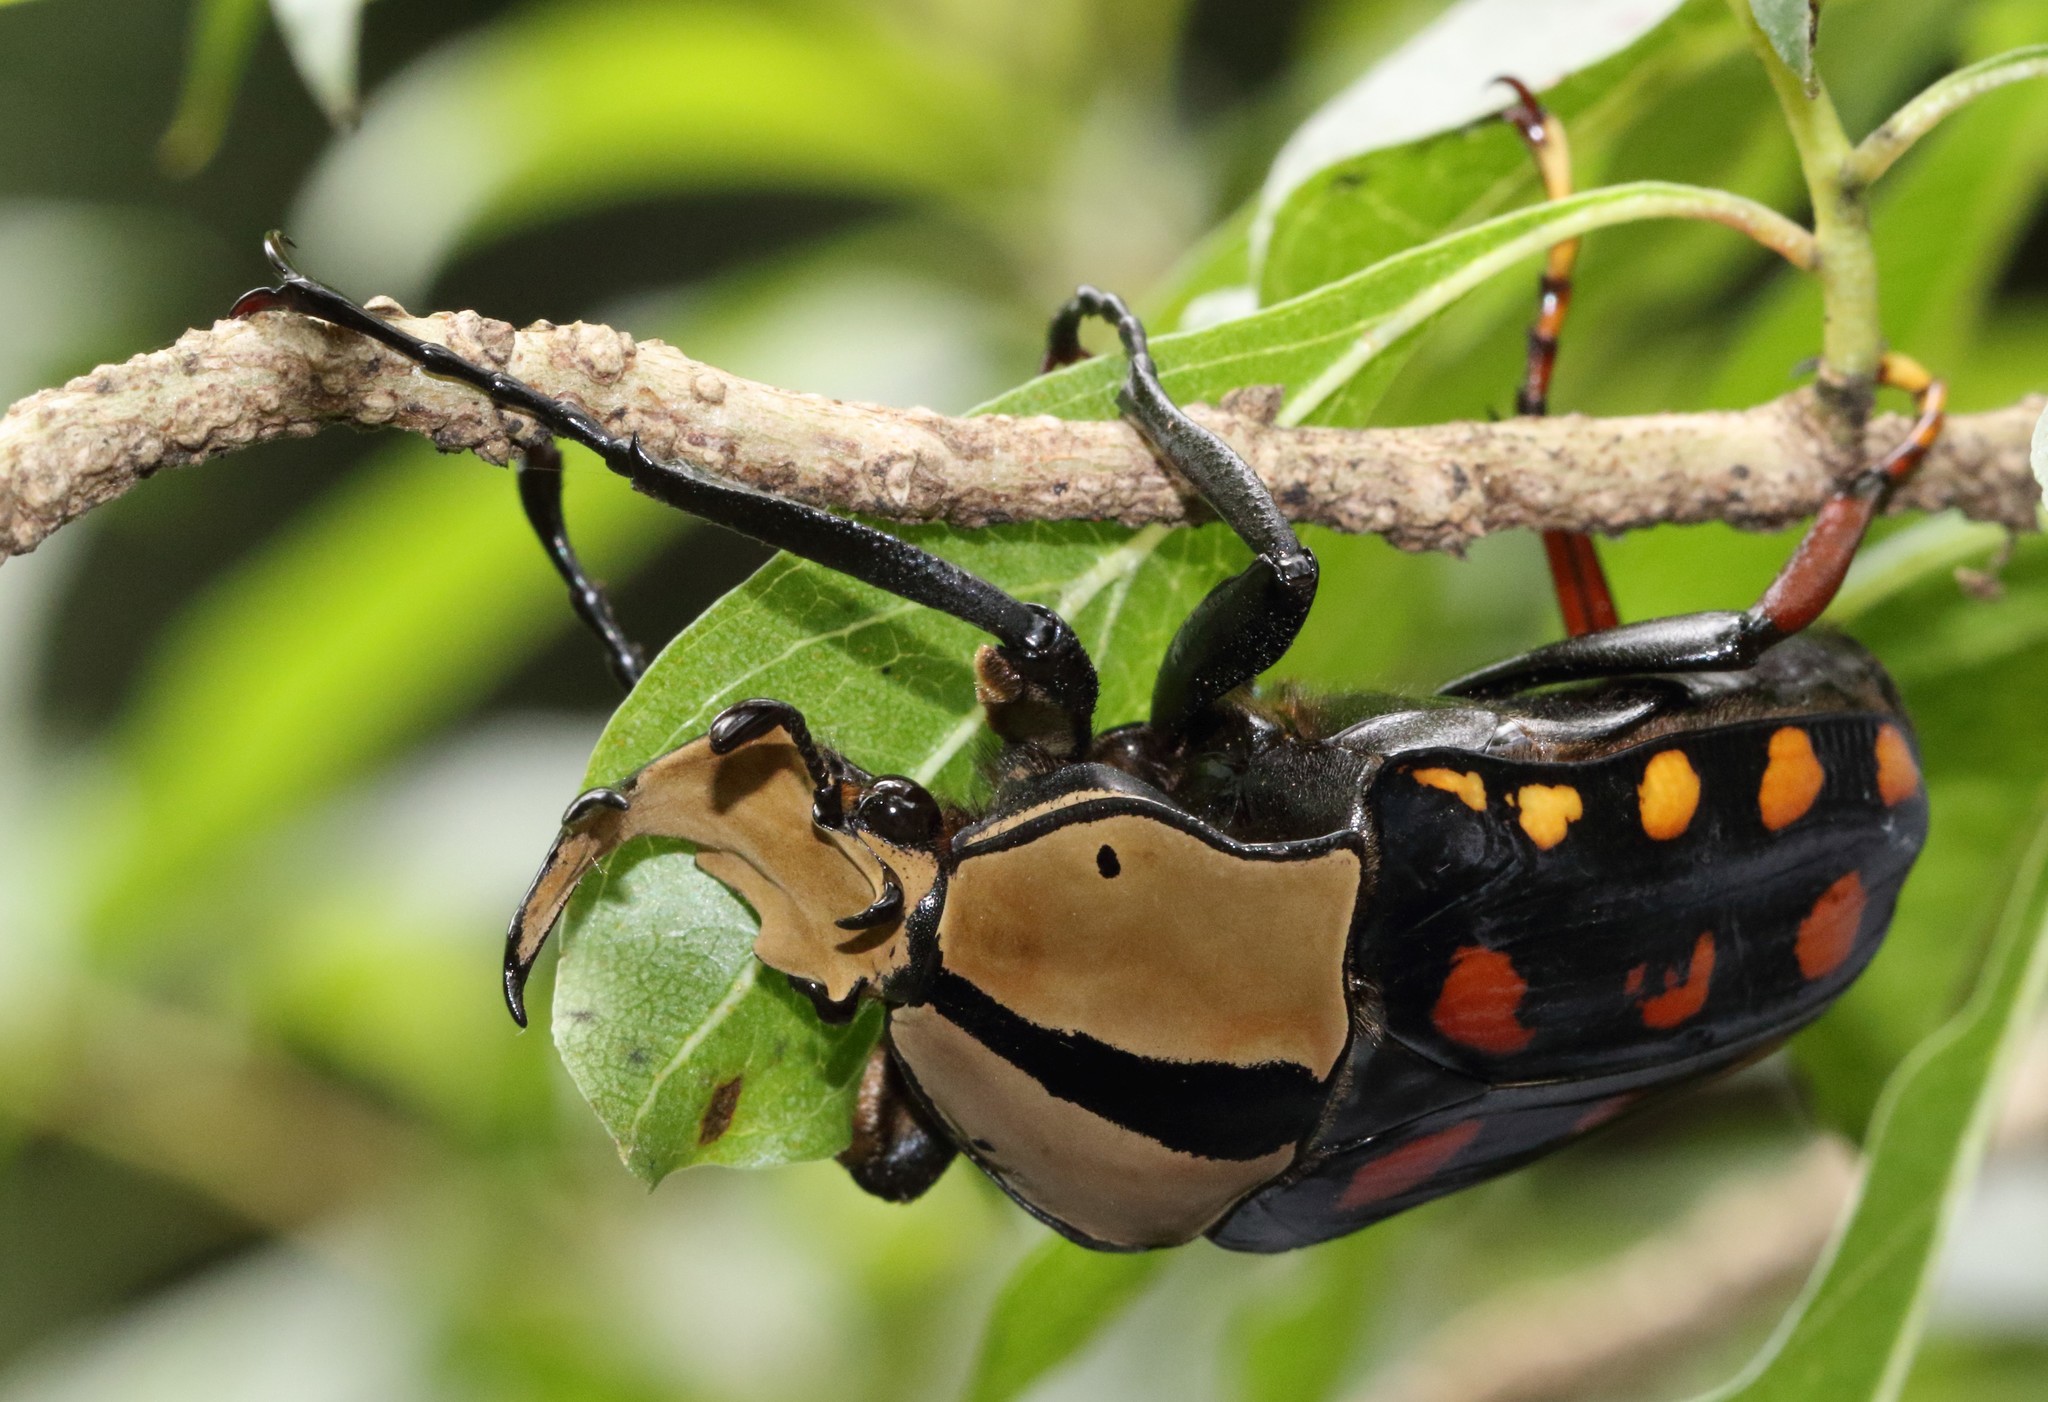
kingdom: Animalia
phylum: Arthropoda
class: Insecta
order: Coleoptera
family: Scarabaeidae
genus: Mecynorhina
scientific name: Mecynorhina passerinii
